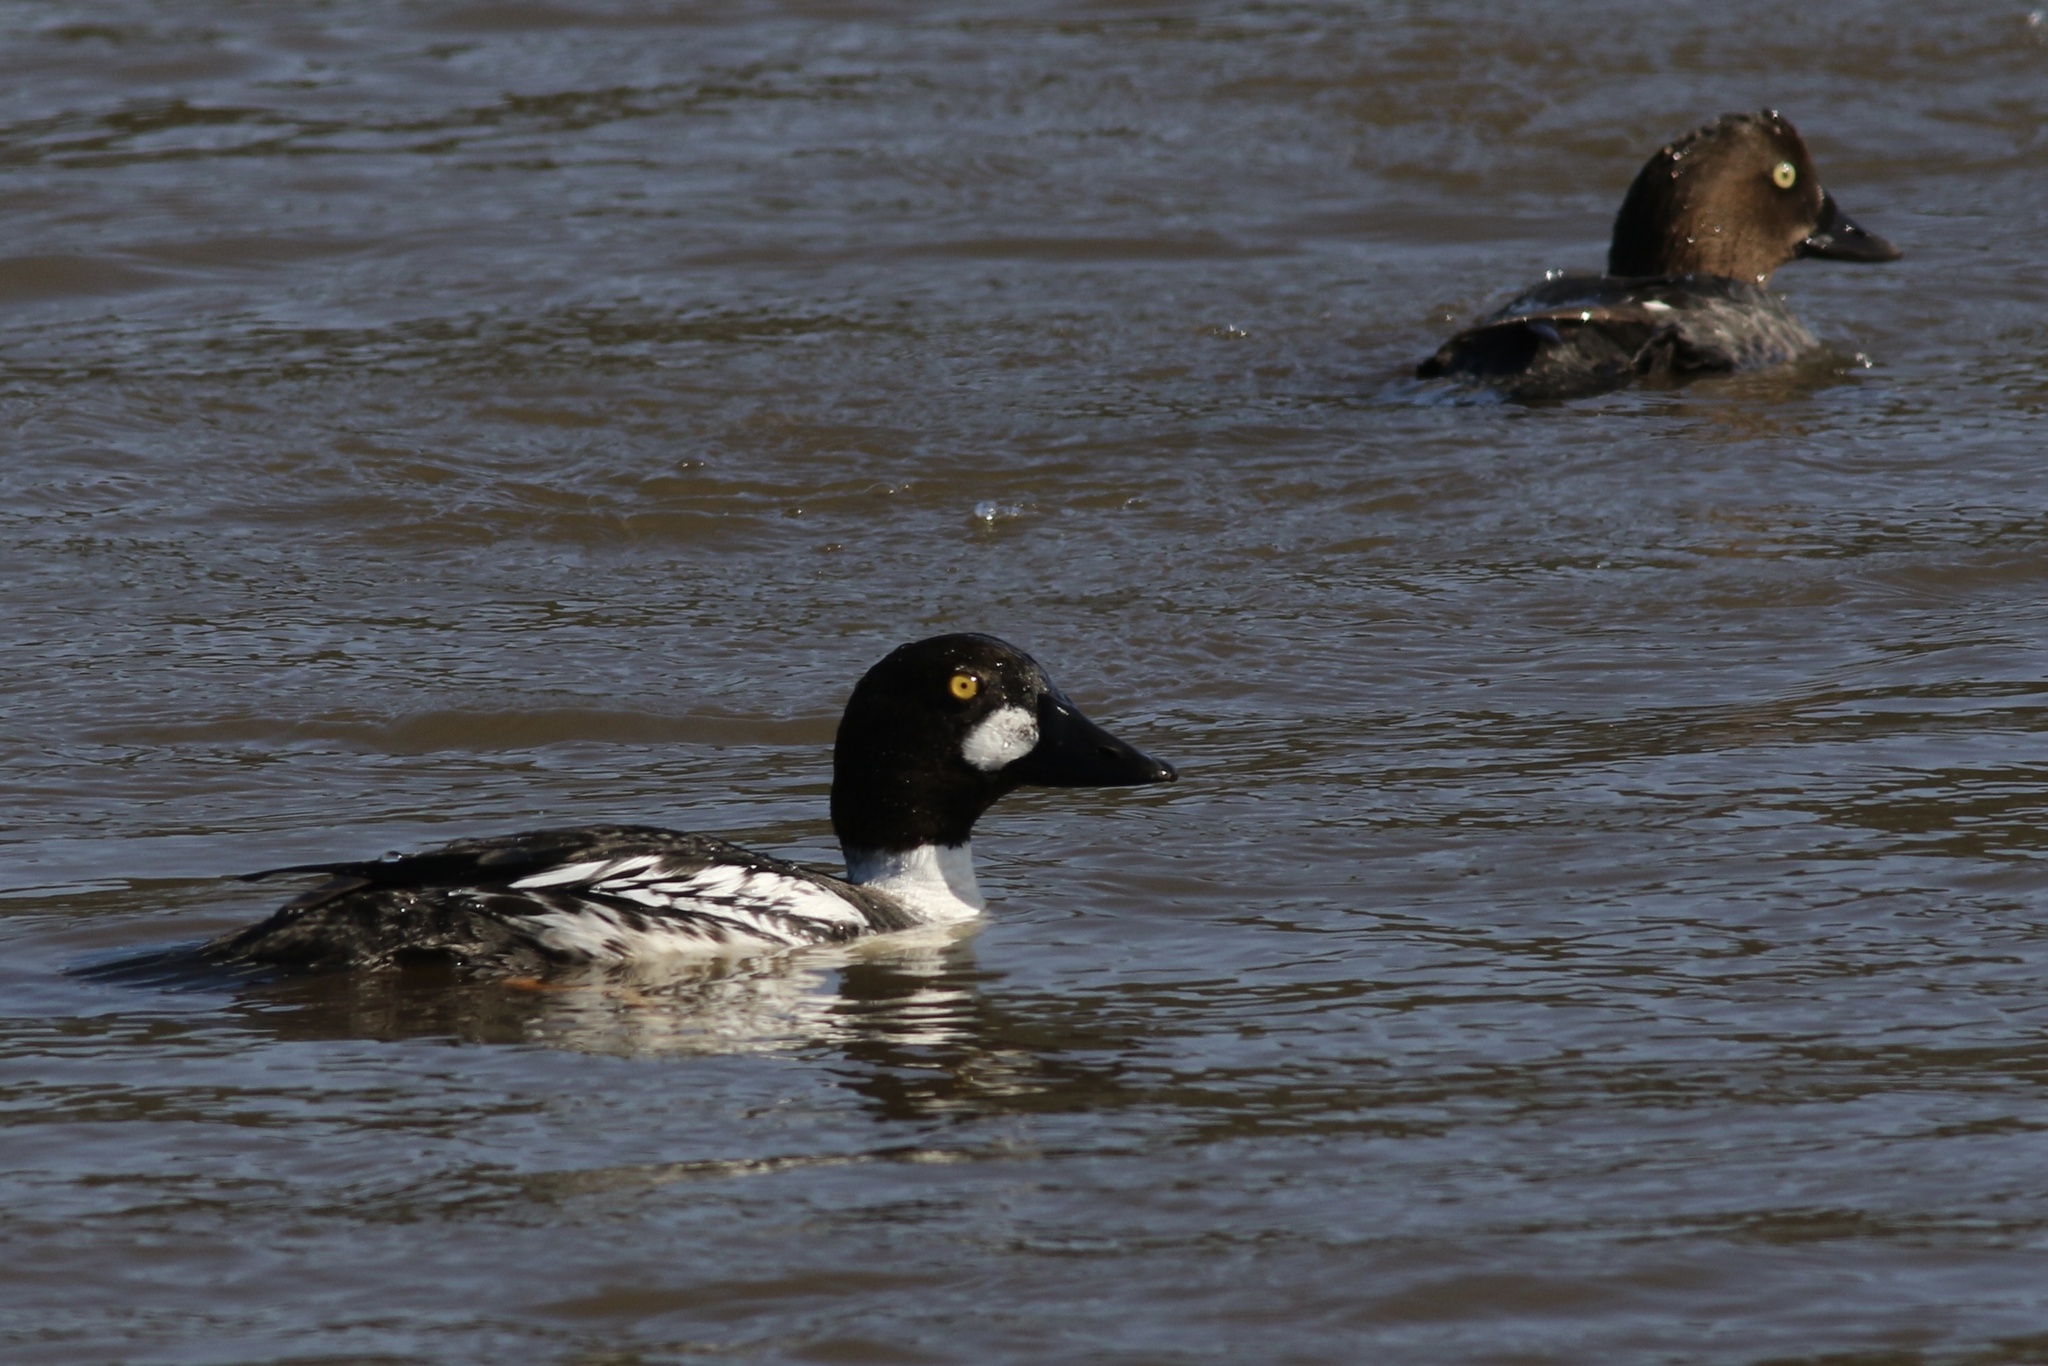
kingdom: Animalia
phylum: Chordata
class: Aves
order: Anseriformes
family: Anatidae
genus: Bucephala
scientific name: Bucephala clangula
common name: Common goldeneye
